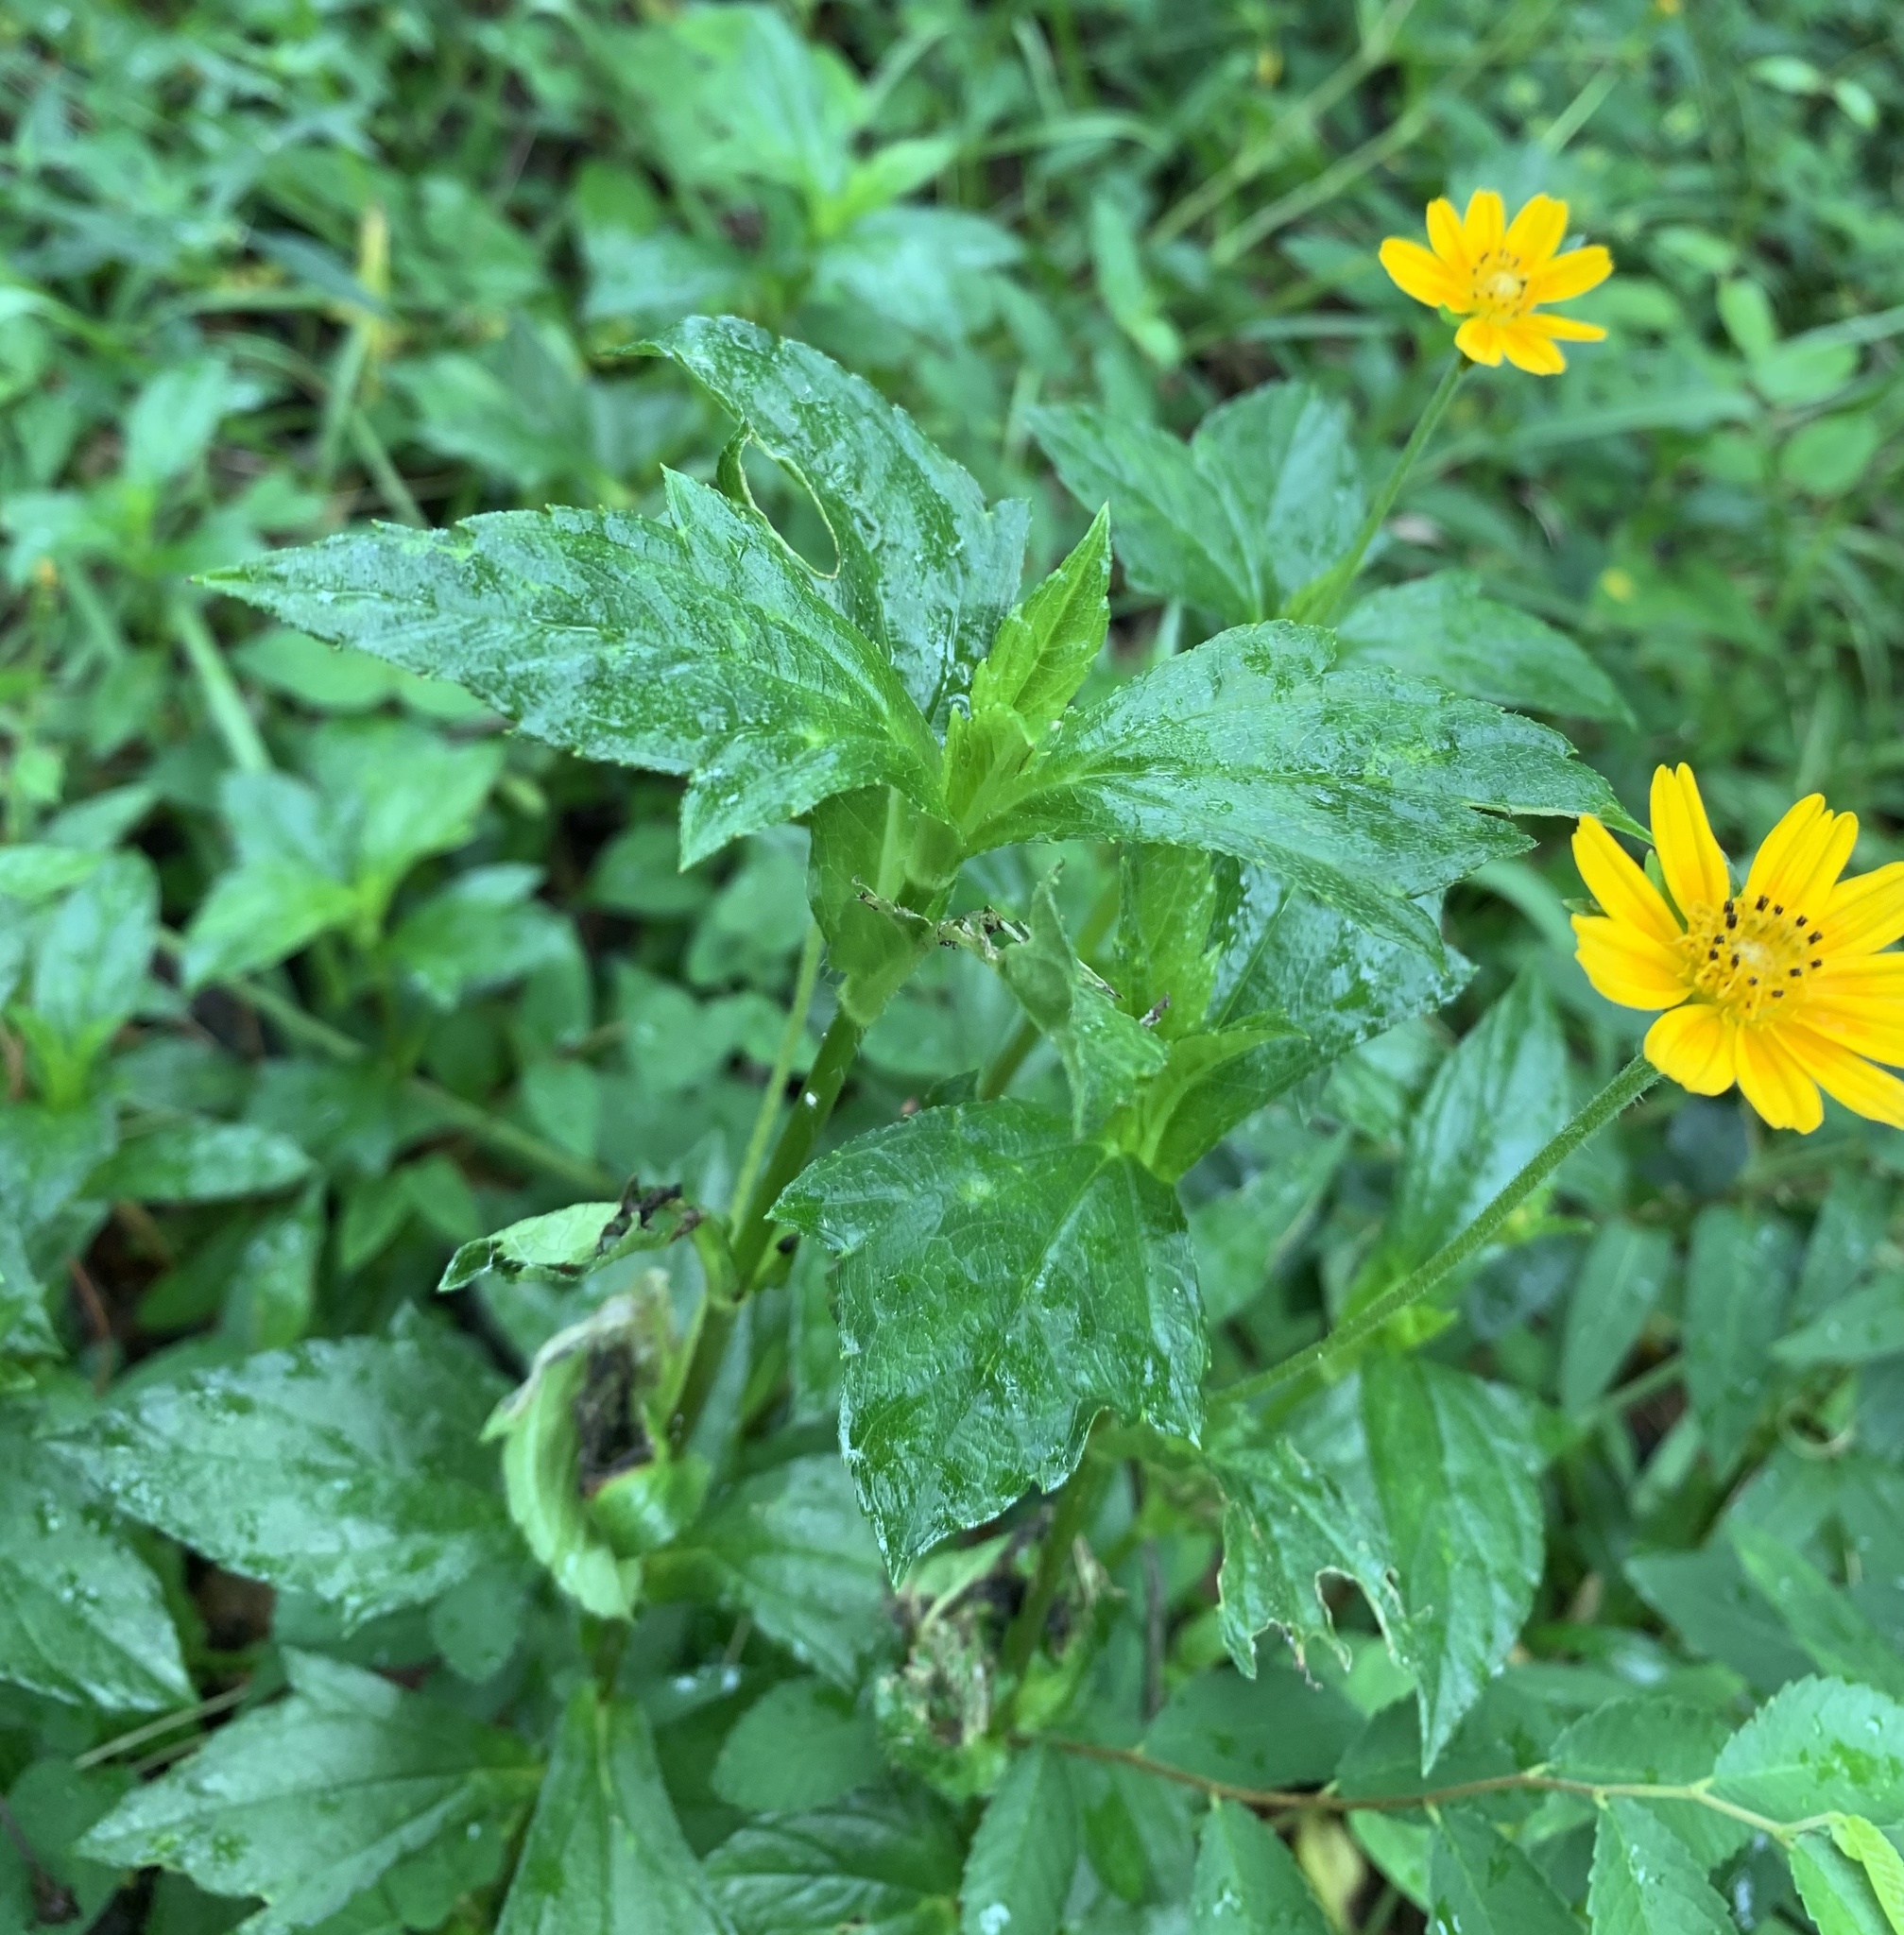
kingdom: Plantae
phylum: Tracheophyta
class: Magnoliopsida
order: Asterales
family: Asteraceae
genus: Sphagneticola
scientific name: Sphagneticola trilobata
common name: Bay biscayne creeping-oxeye
